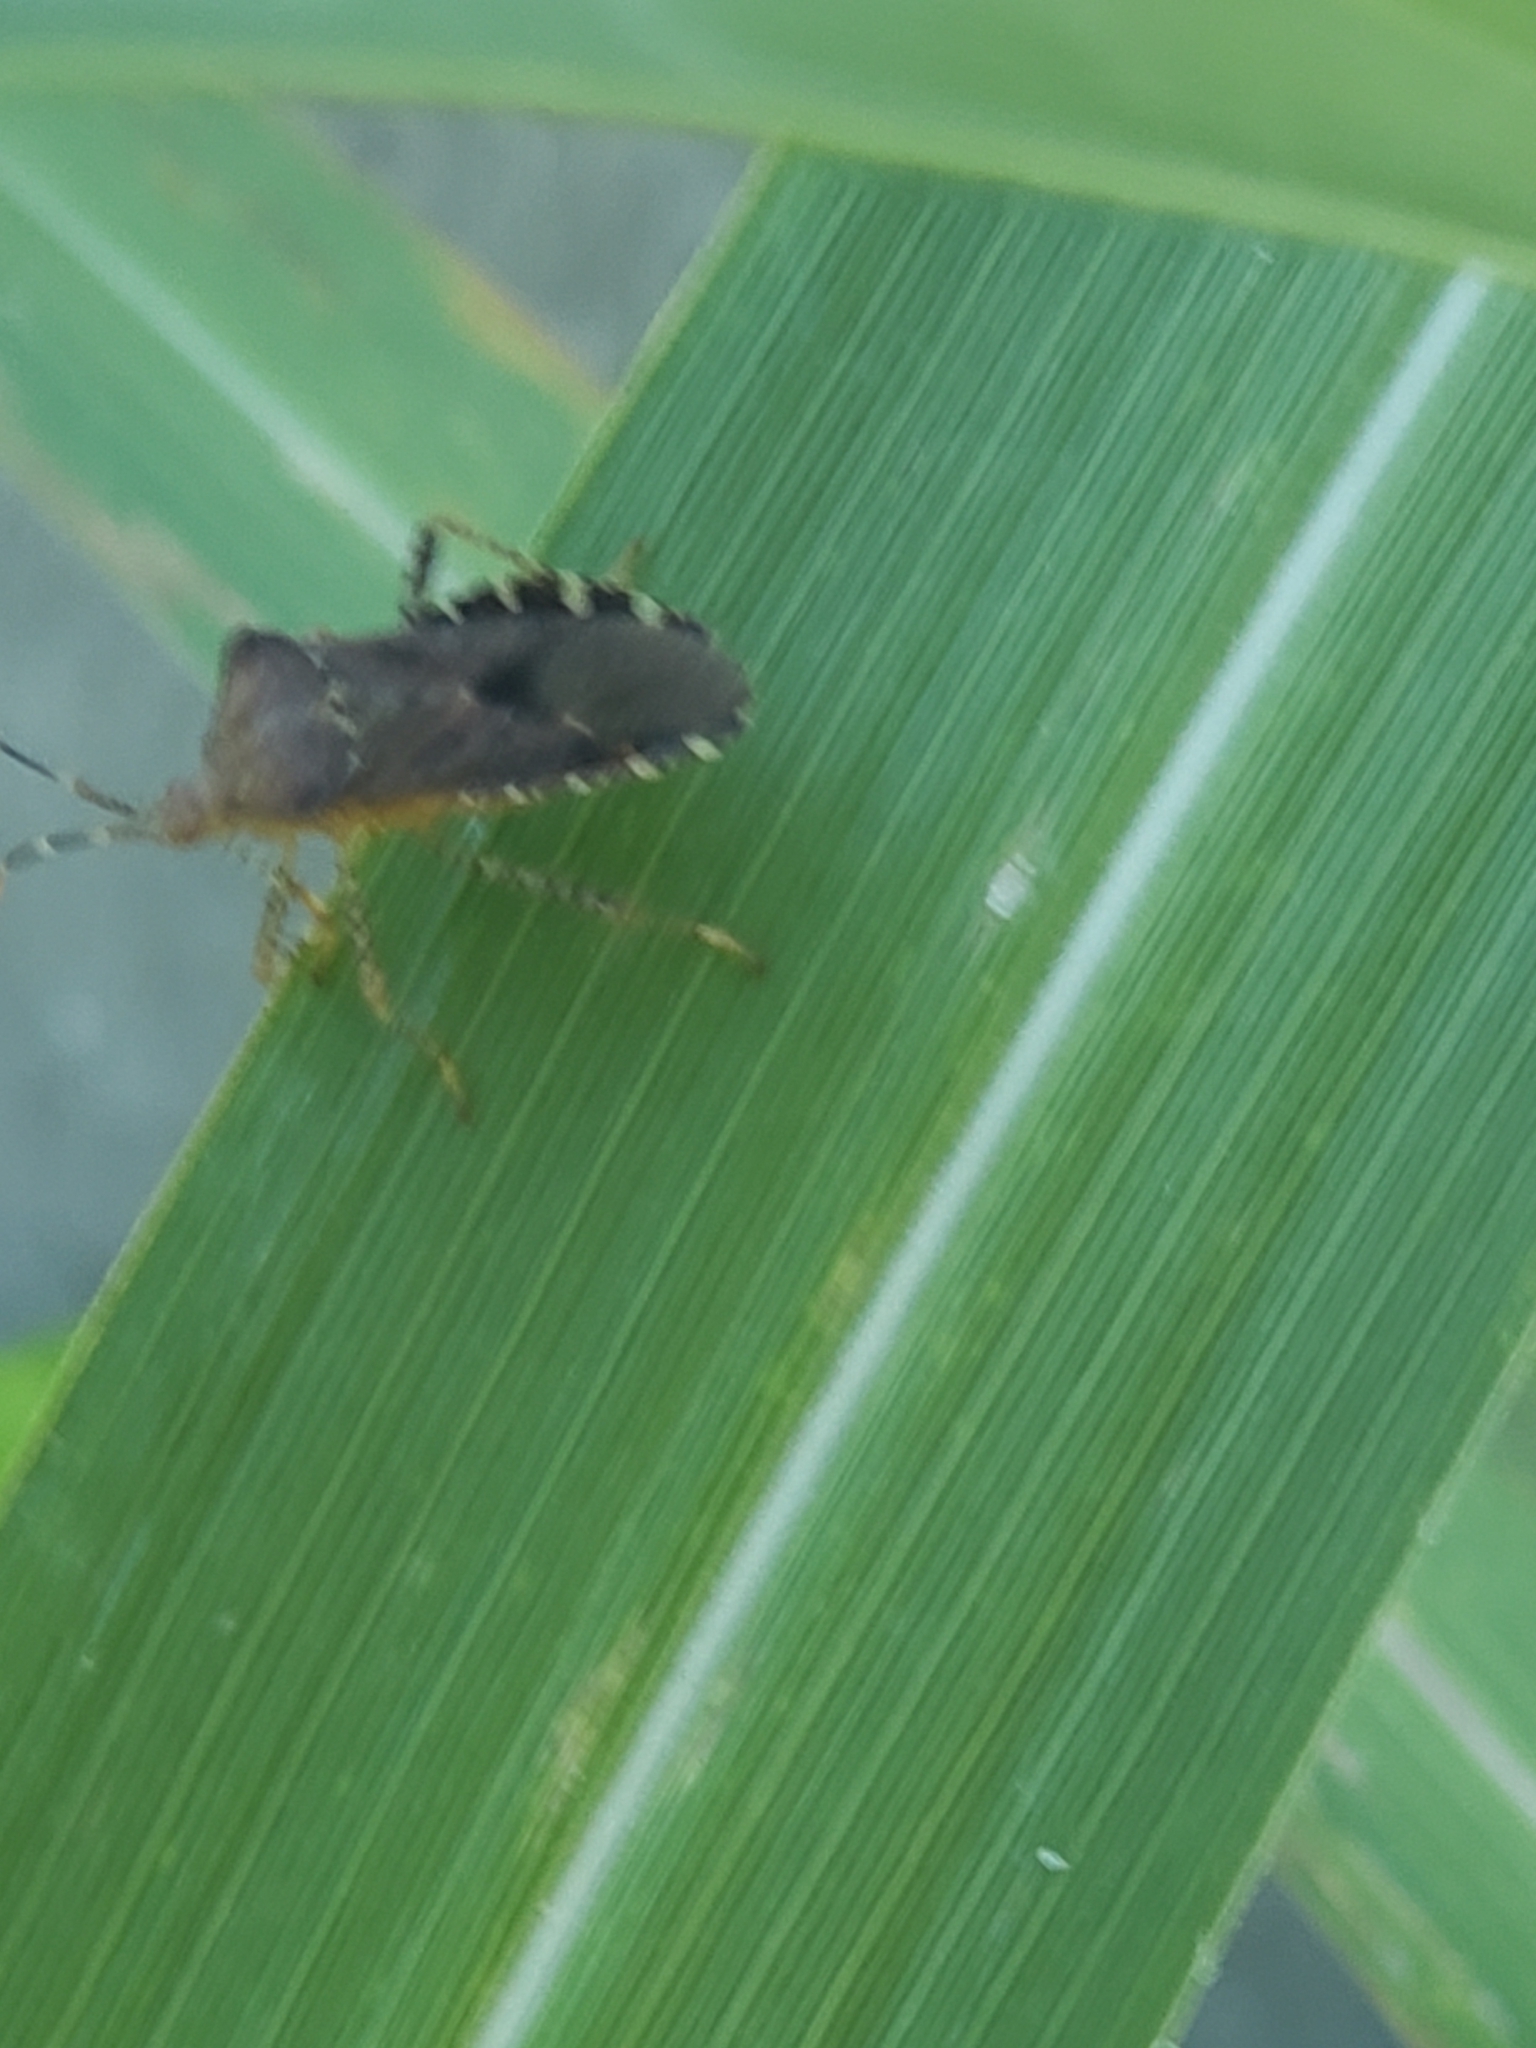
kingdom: Animalia
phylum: Arthropoda
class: Insecta
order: Hemiptera
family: Coreidae
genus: Anasa
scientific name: Anasa armigera
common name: Horned squash bug
